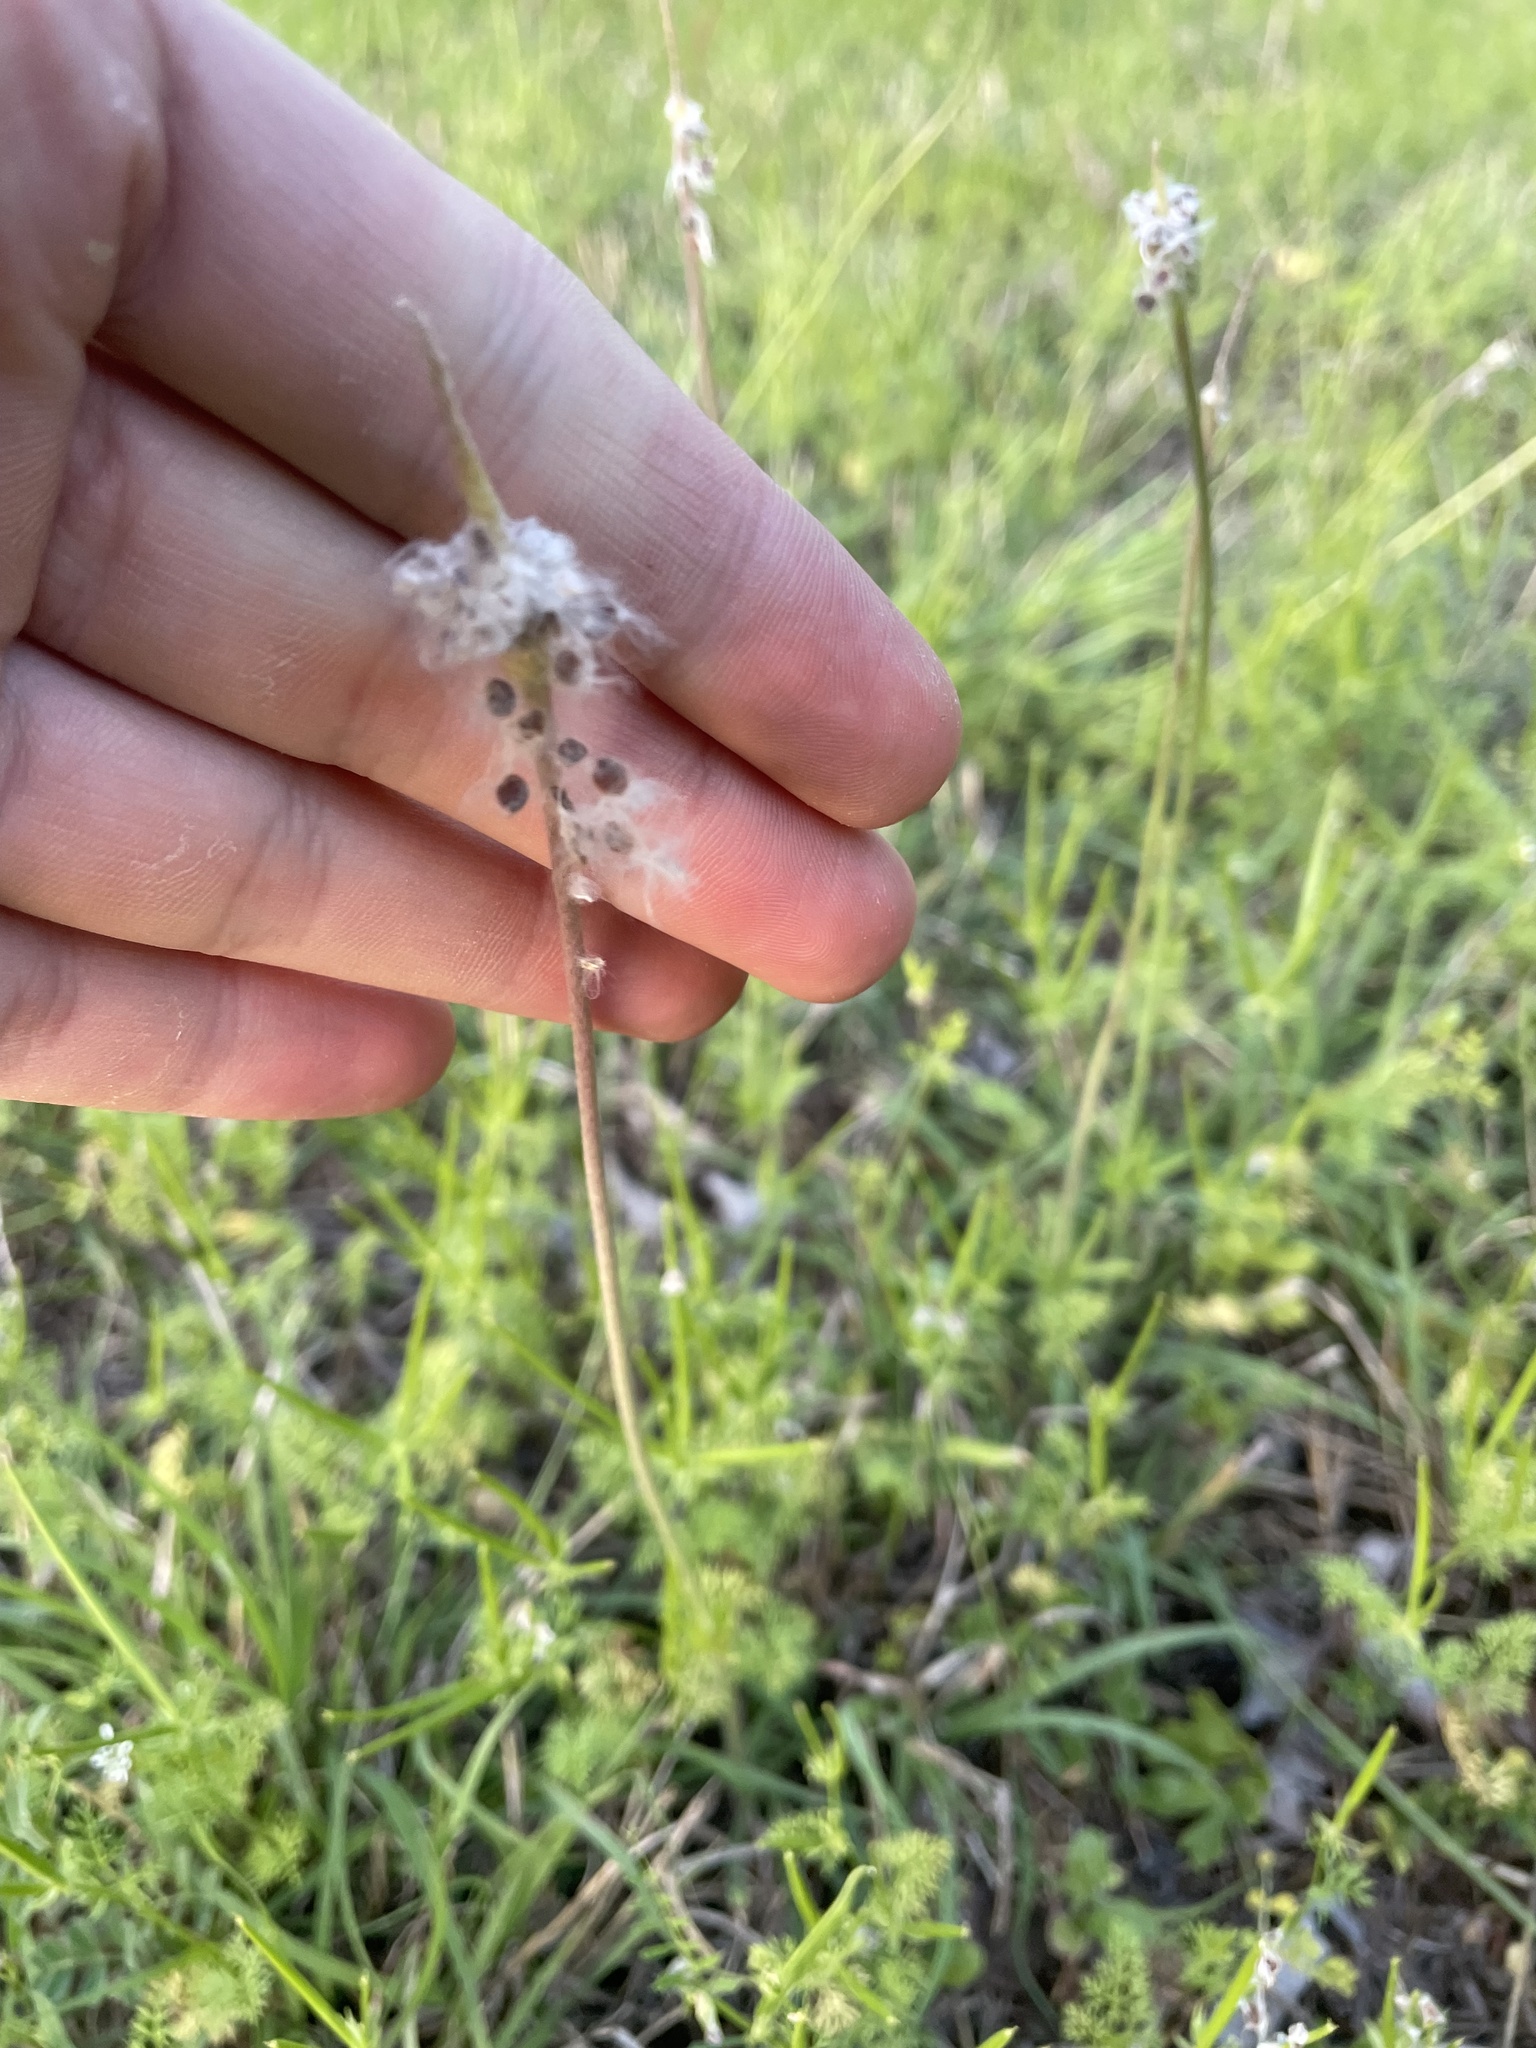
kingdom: Plantae
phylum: Tracheophyta
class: Magnoliopsida
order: Ranunculales
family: Ranunculaceae
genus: Anemone
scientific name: Anemone berlandieri
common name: Ten-petal anemone
